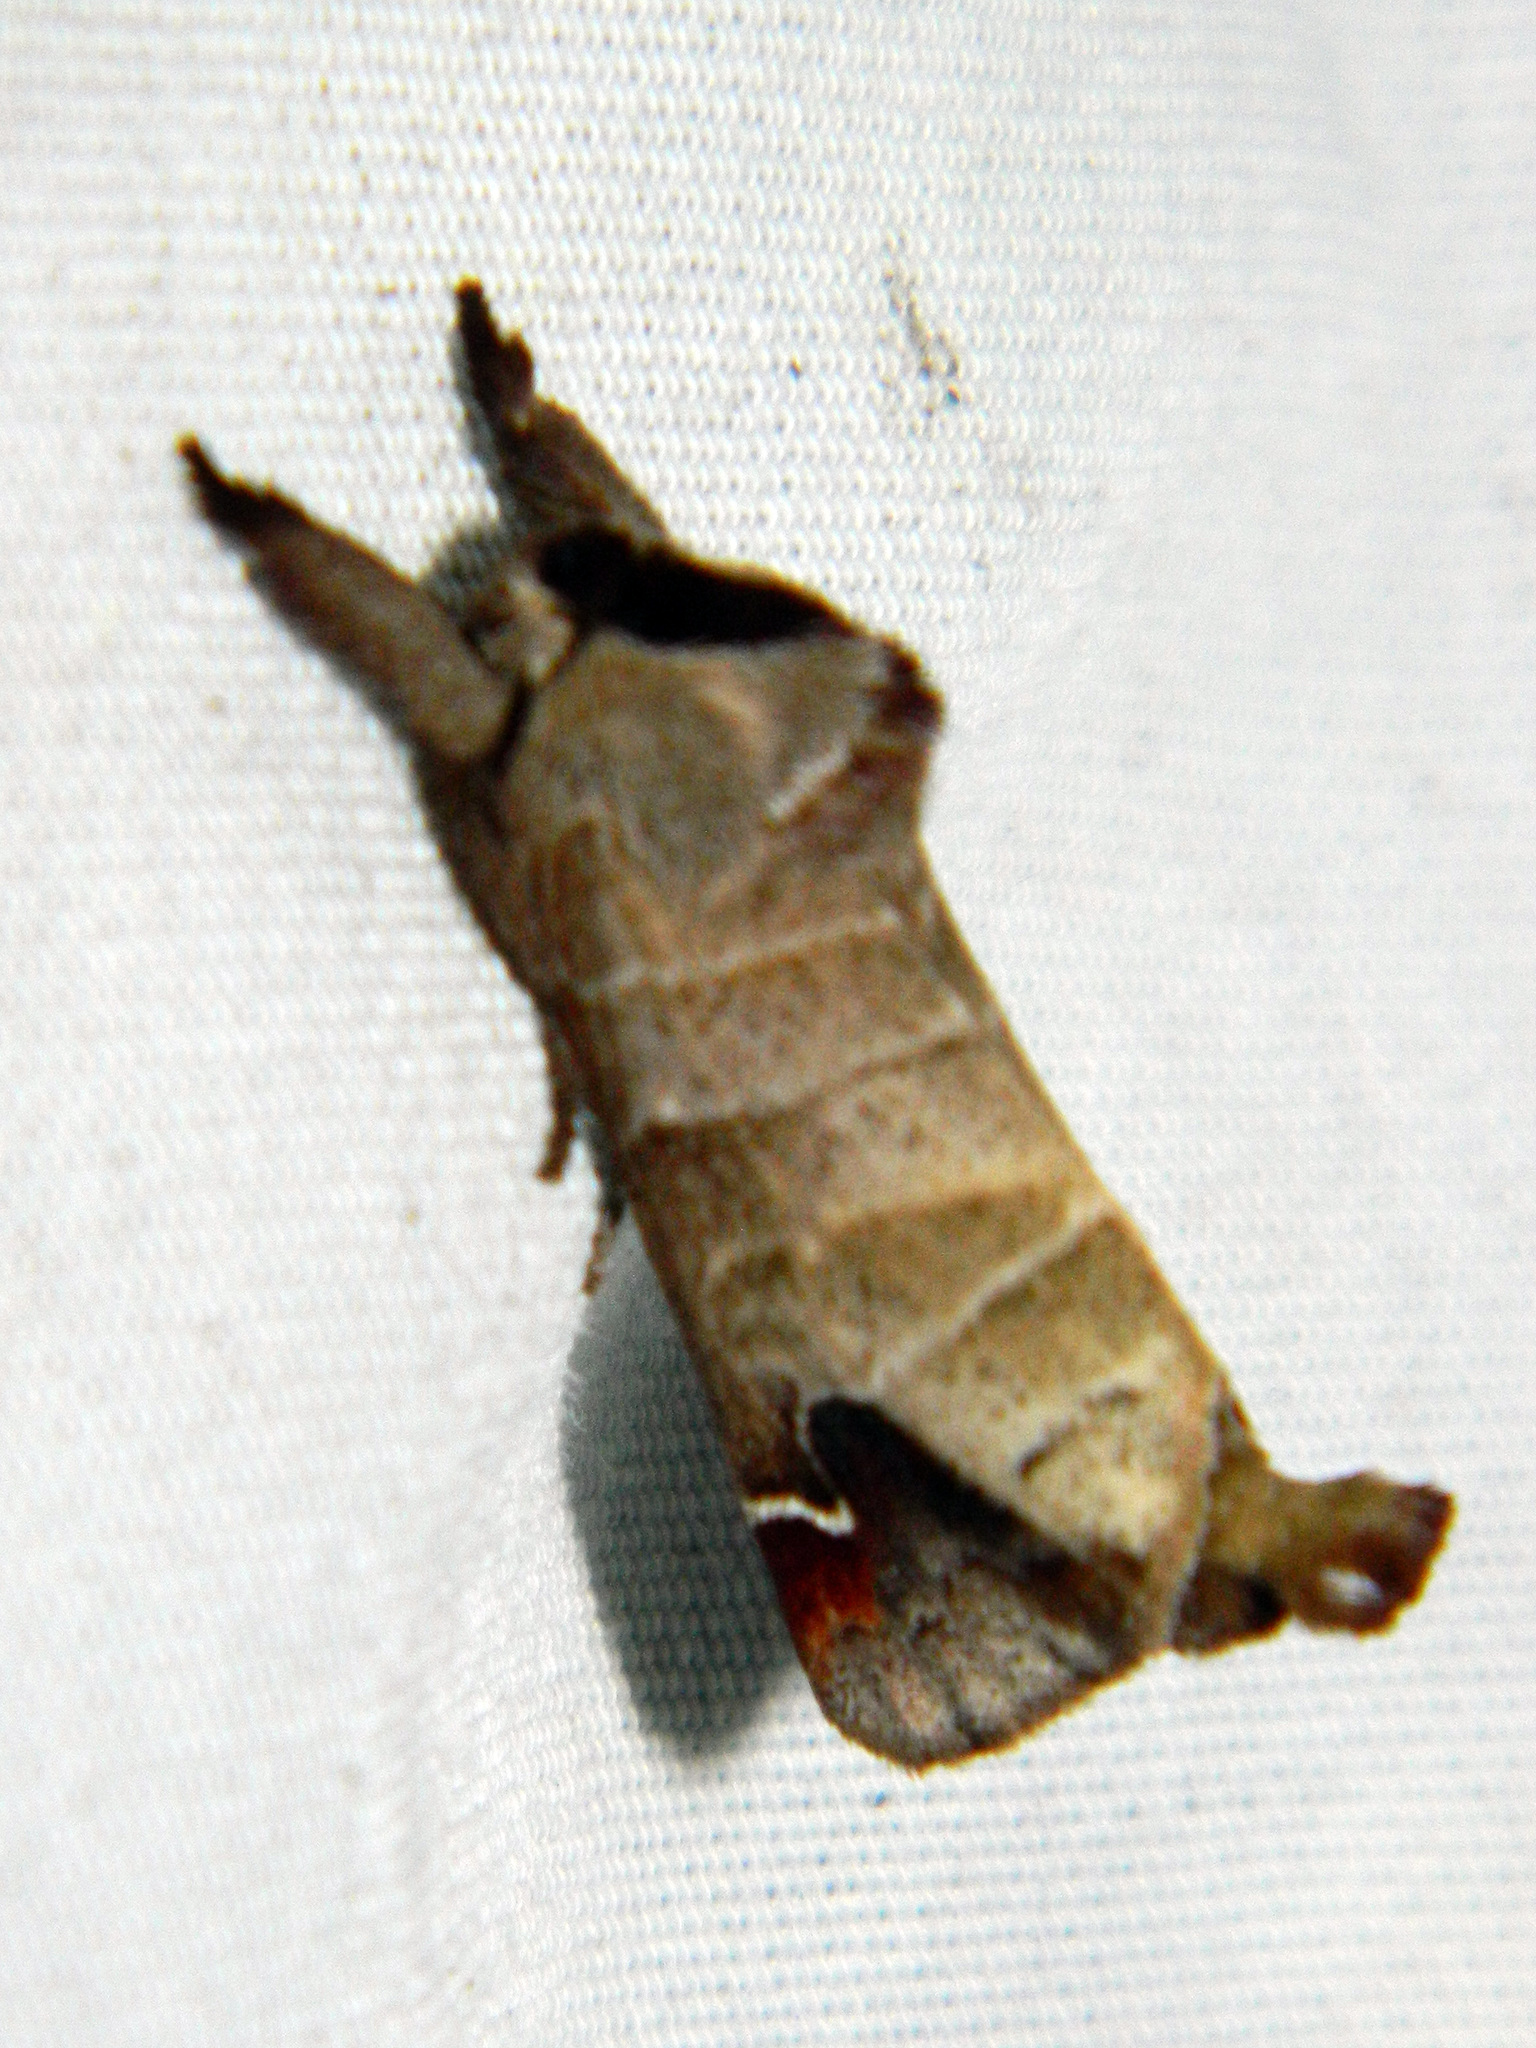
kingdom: Animalia
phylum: Arthropoda
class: Insecta
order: Lepidoptera
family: Notodontidae
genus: Clostera
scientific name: Clostera albosigma
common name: Sigmoid prominent
